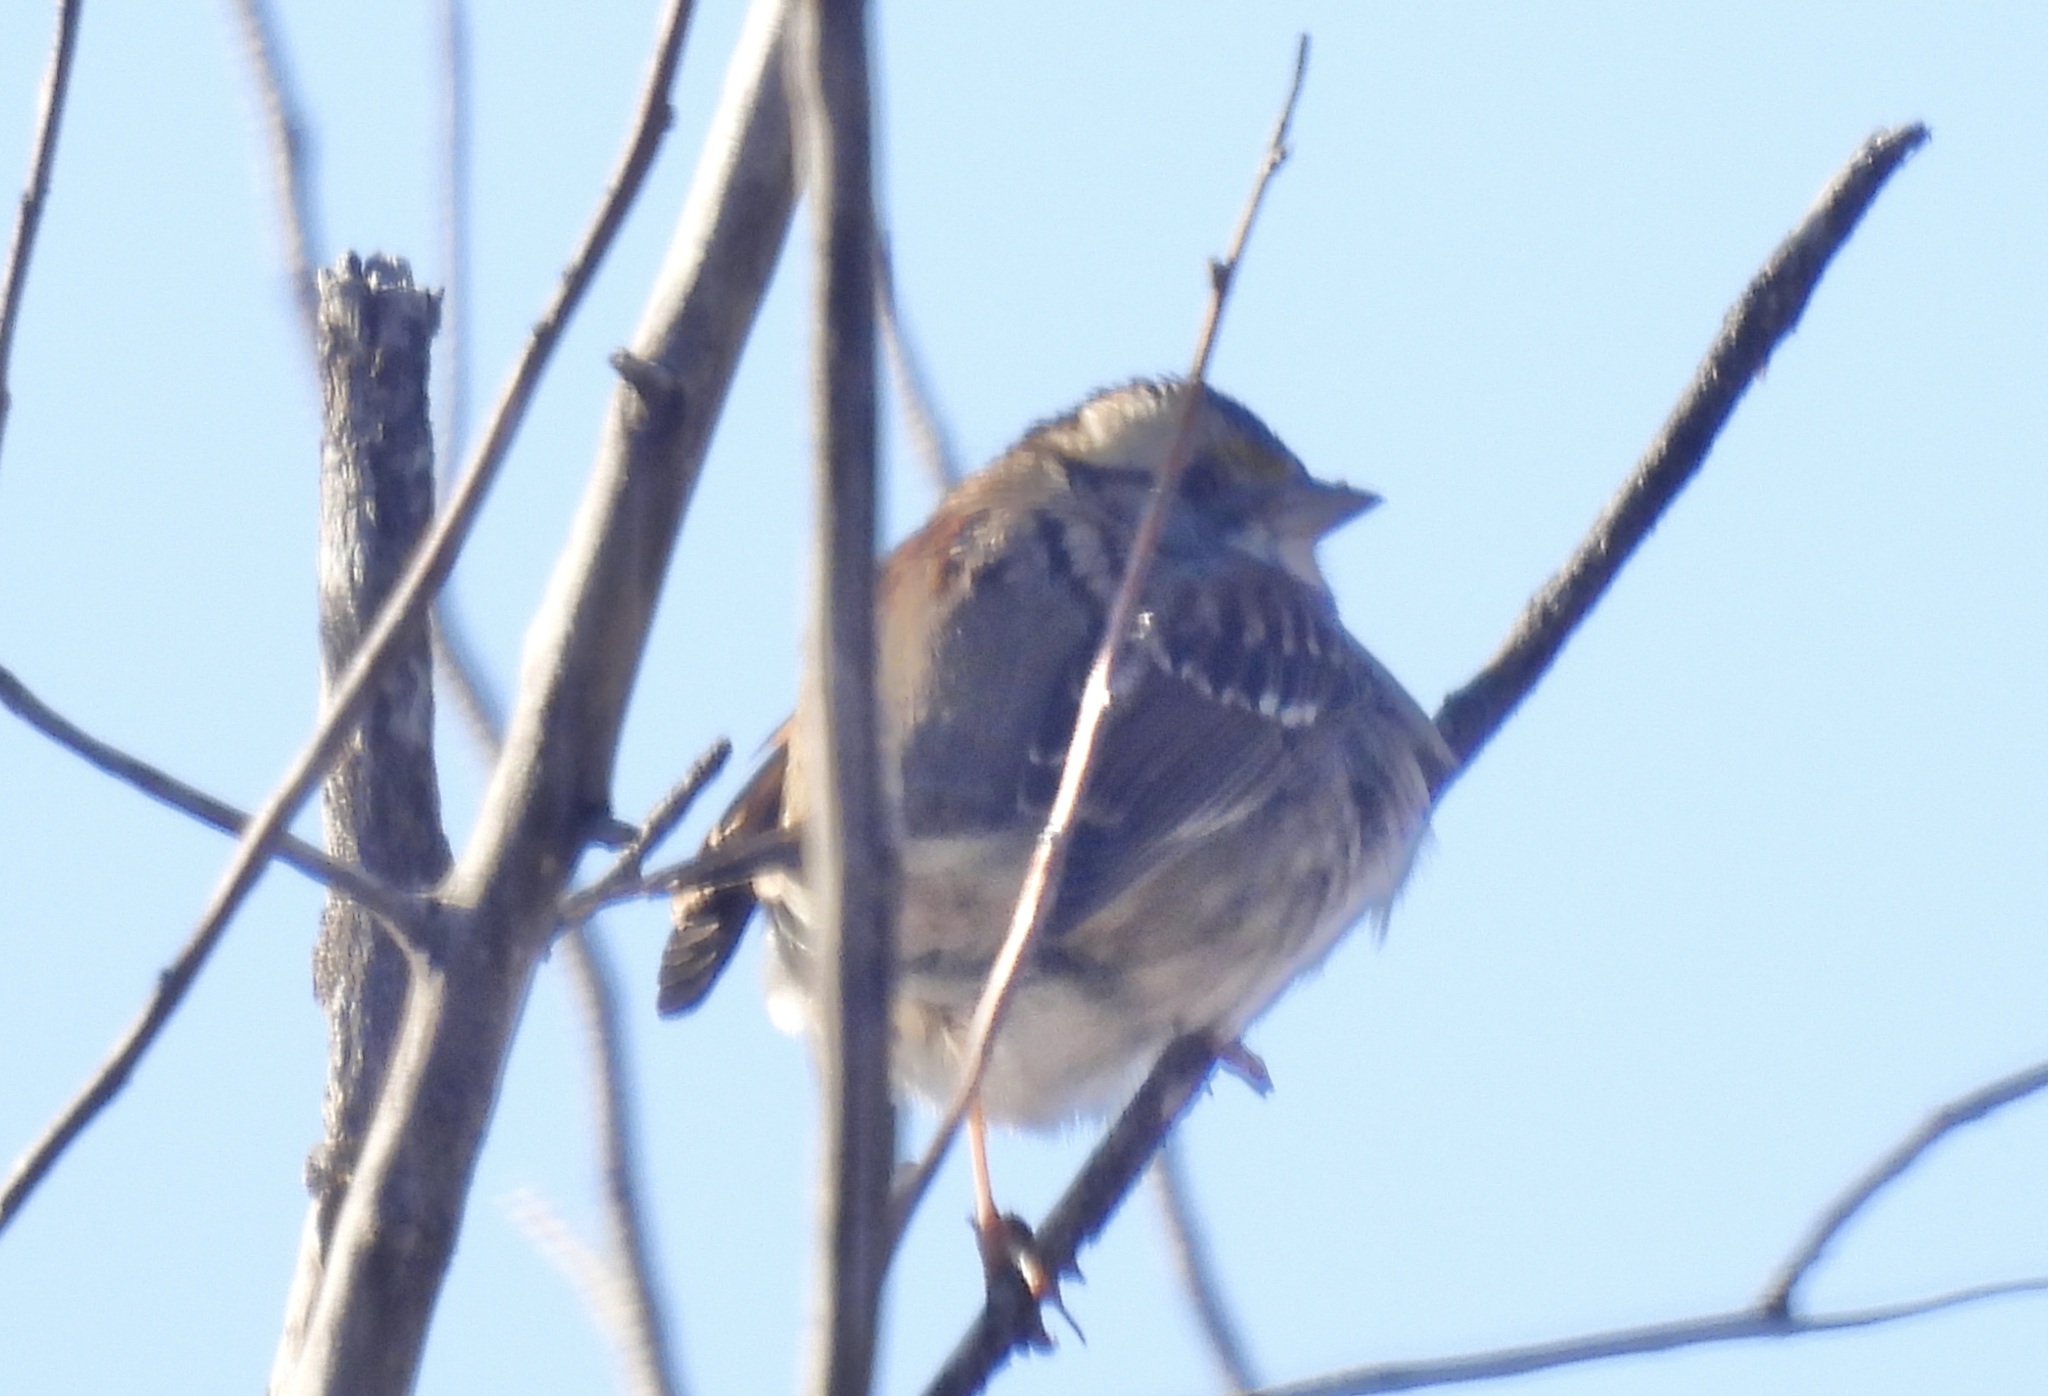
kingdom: Animalia
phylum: Chordata
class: Aves
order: Passeriformes
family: Passerellidae
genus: Zonotrichia
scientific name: Zonotrichia albicollis
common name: White-throated sparrow
